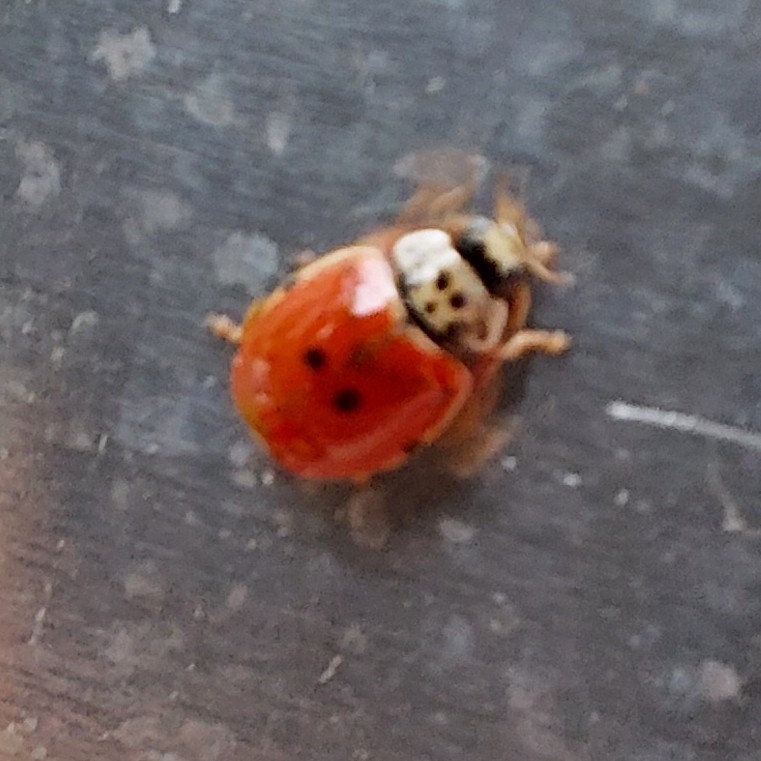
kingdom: Animalia
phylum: Arthropoda
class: Insecta
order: Coleoptera
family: Coccinellidae
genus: Adalia
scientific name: Adalia decempunctata
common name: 10-spot ladybird
